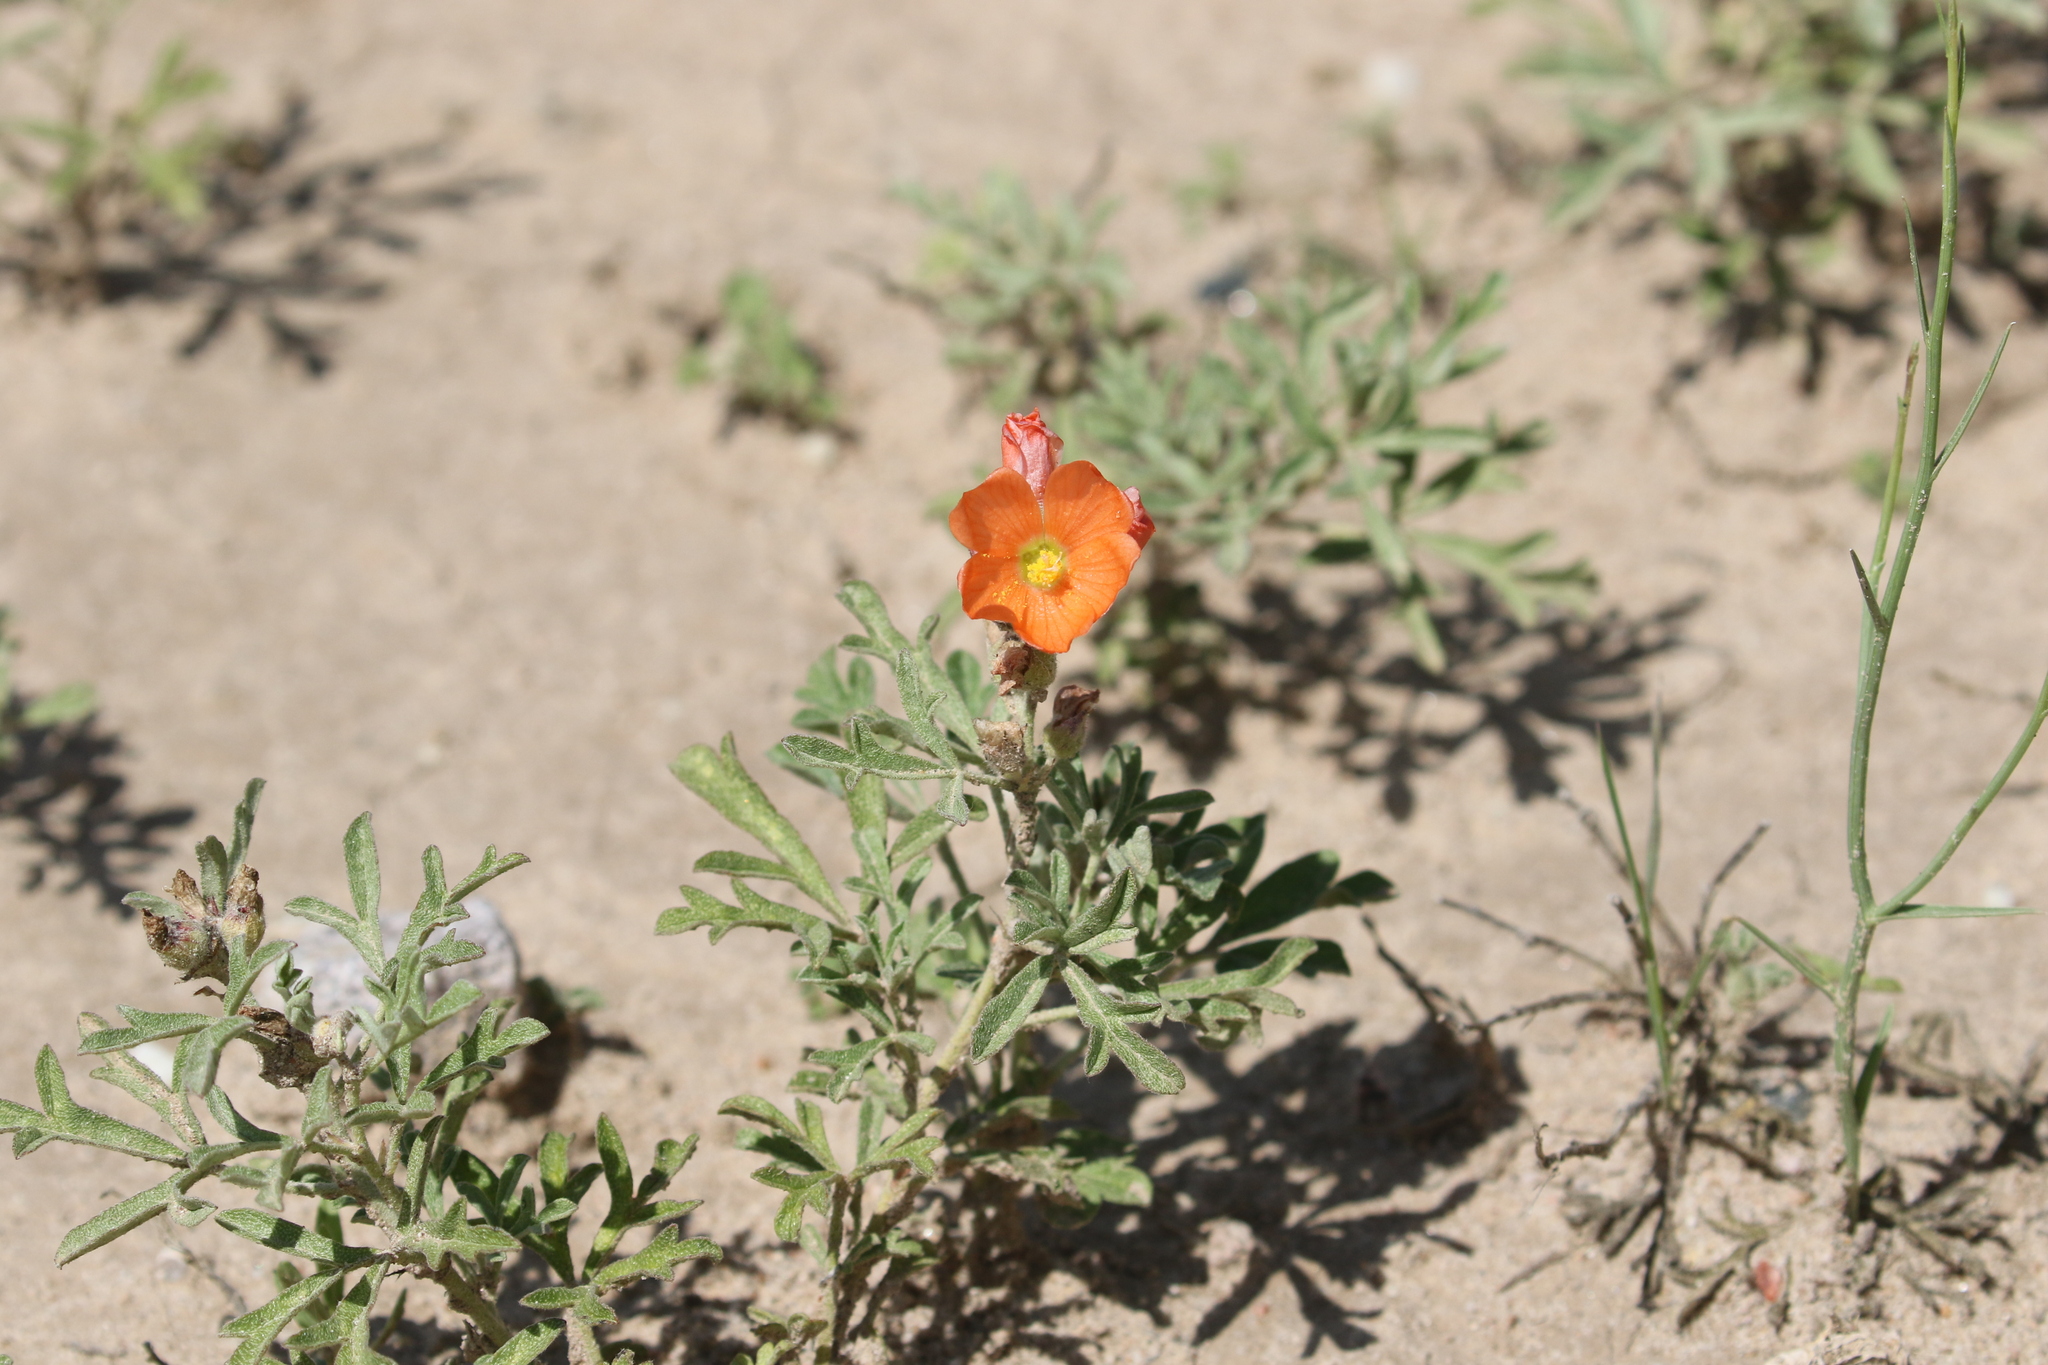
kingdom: Plantae
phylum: Tracheophyta
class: Magnoliopsida
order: Malvales
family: Malvaceae
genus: Sphaeralcea
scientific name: Sphaeralcea coccinea
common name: Moss-rose
